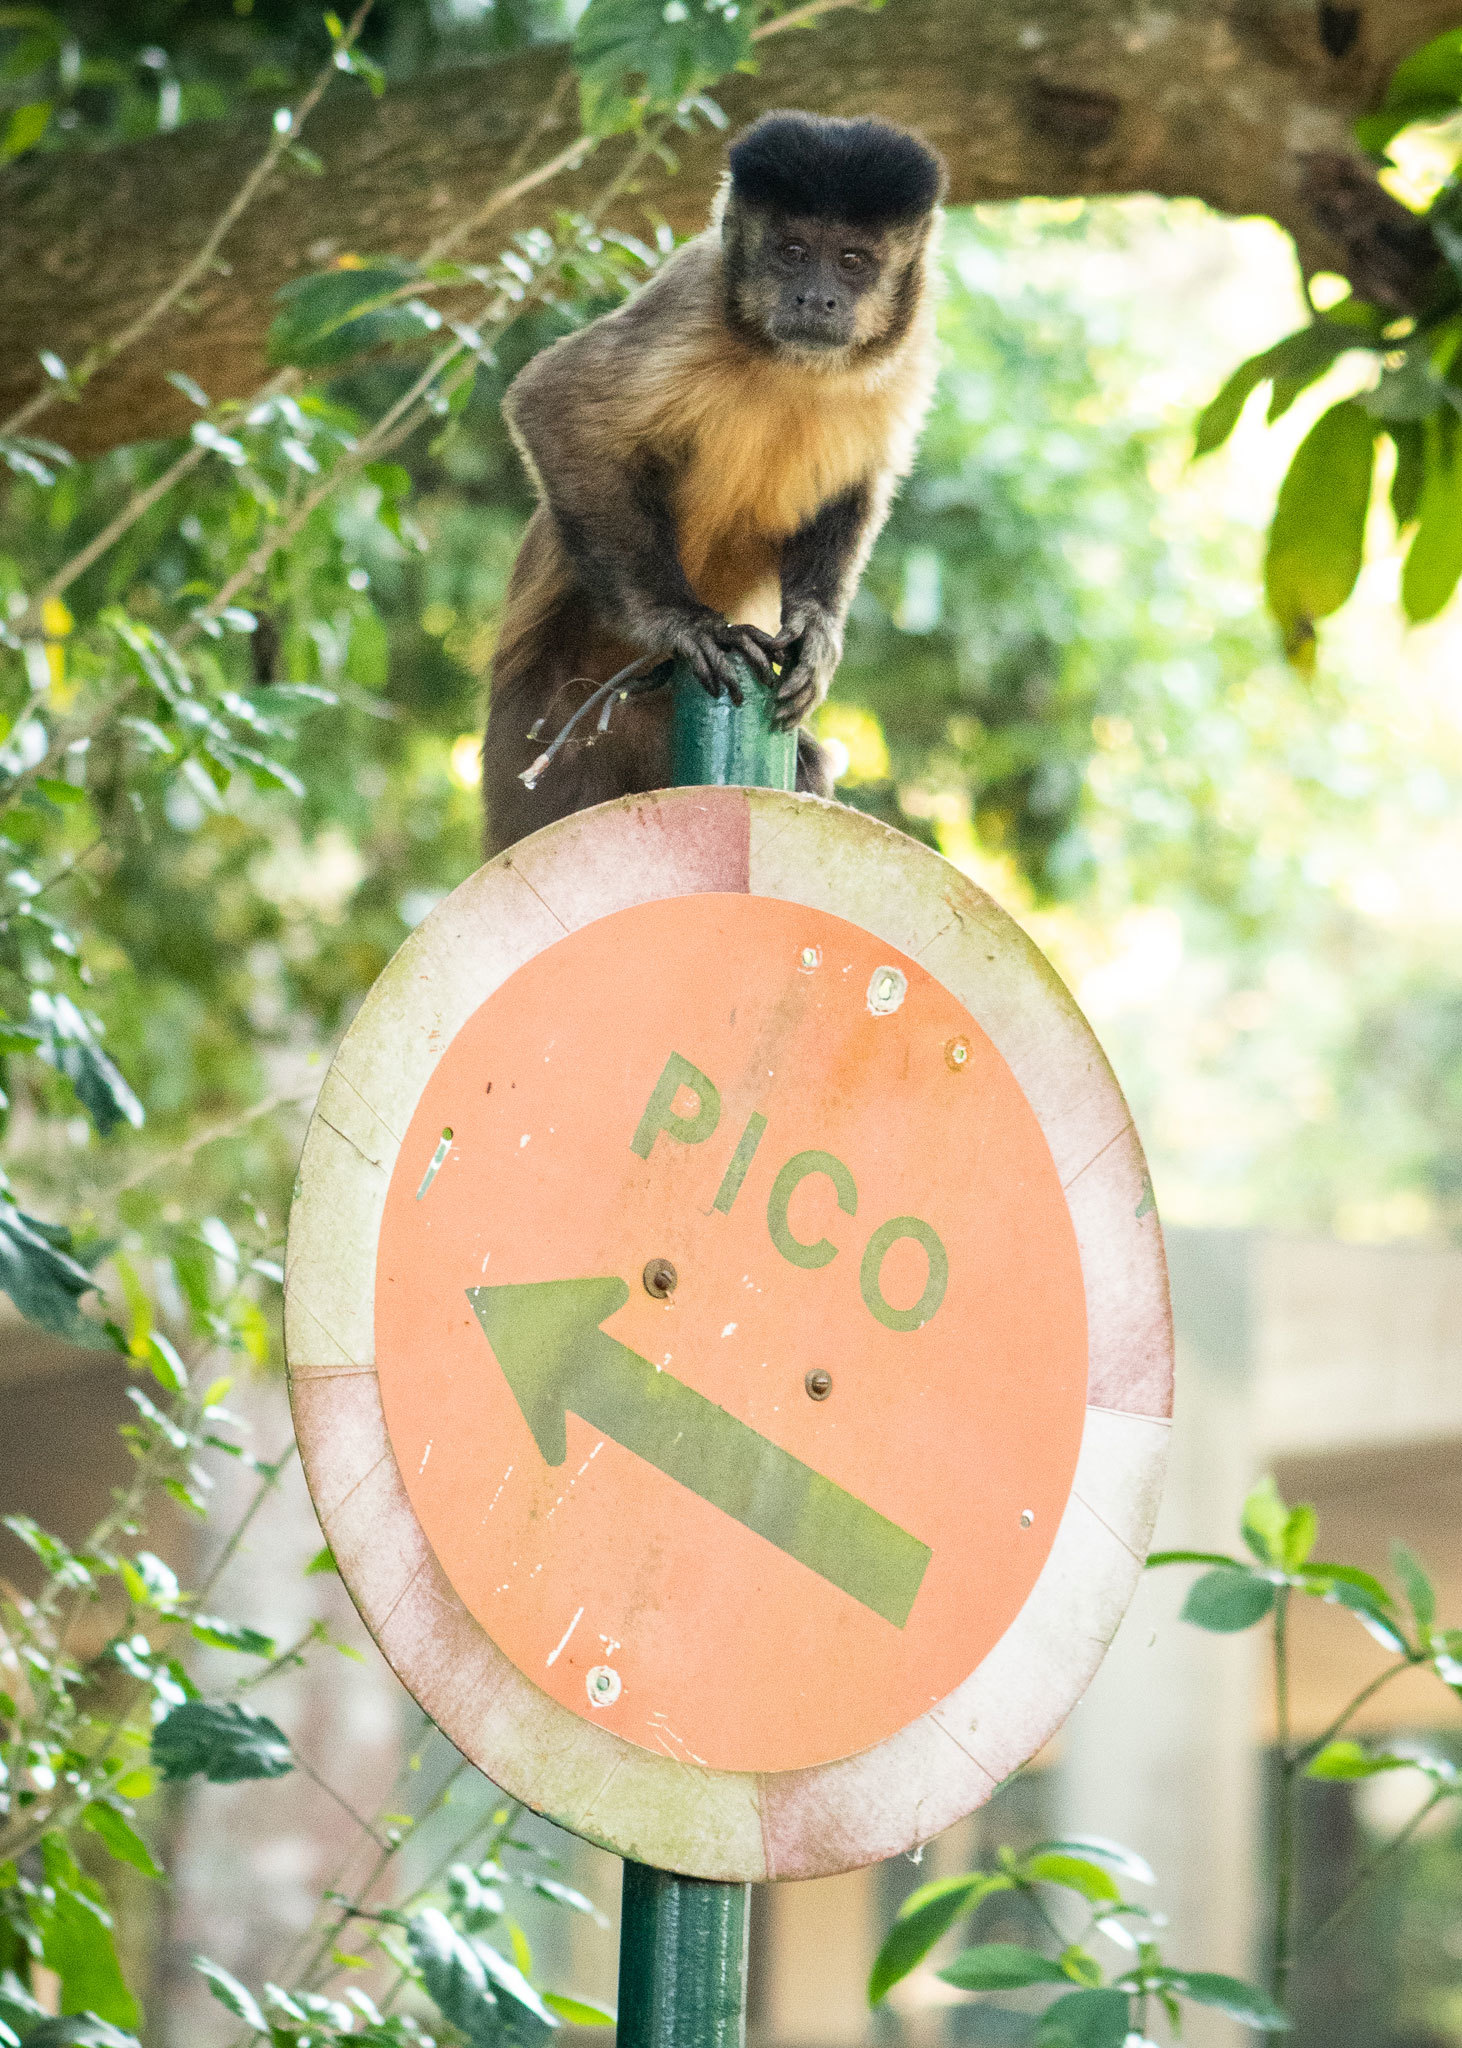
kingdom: Animalia
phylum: Chordata
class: Mammalia
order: Primates
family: Cebidae
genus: Sapajus
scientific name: Sapajus nigritus
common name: Black capuchin
